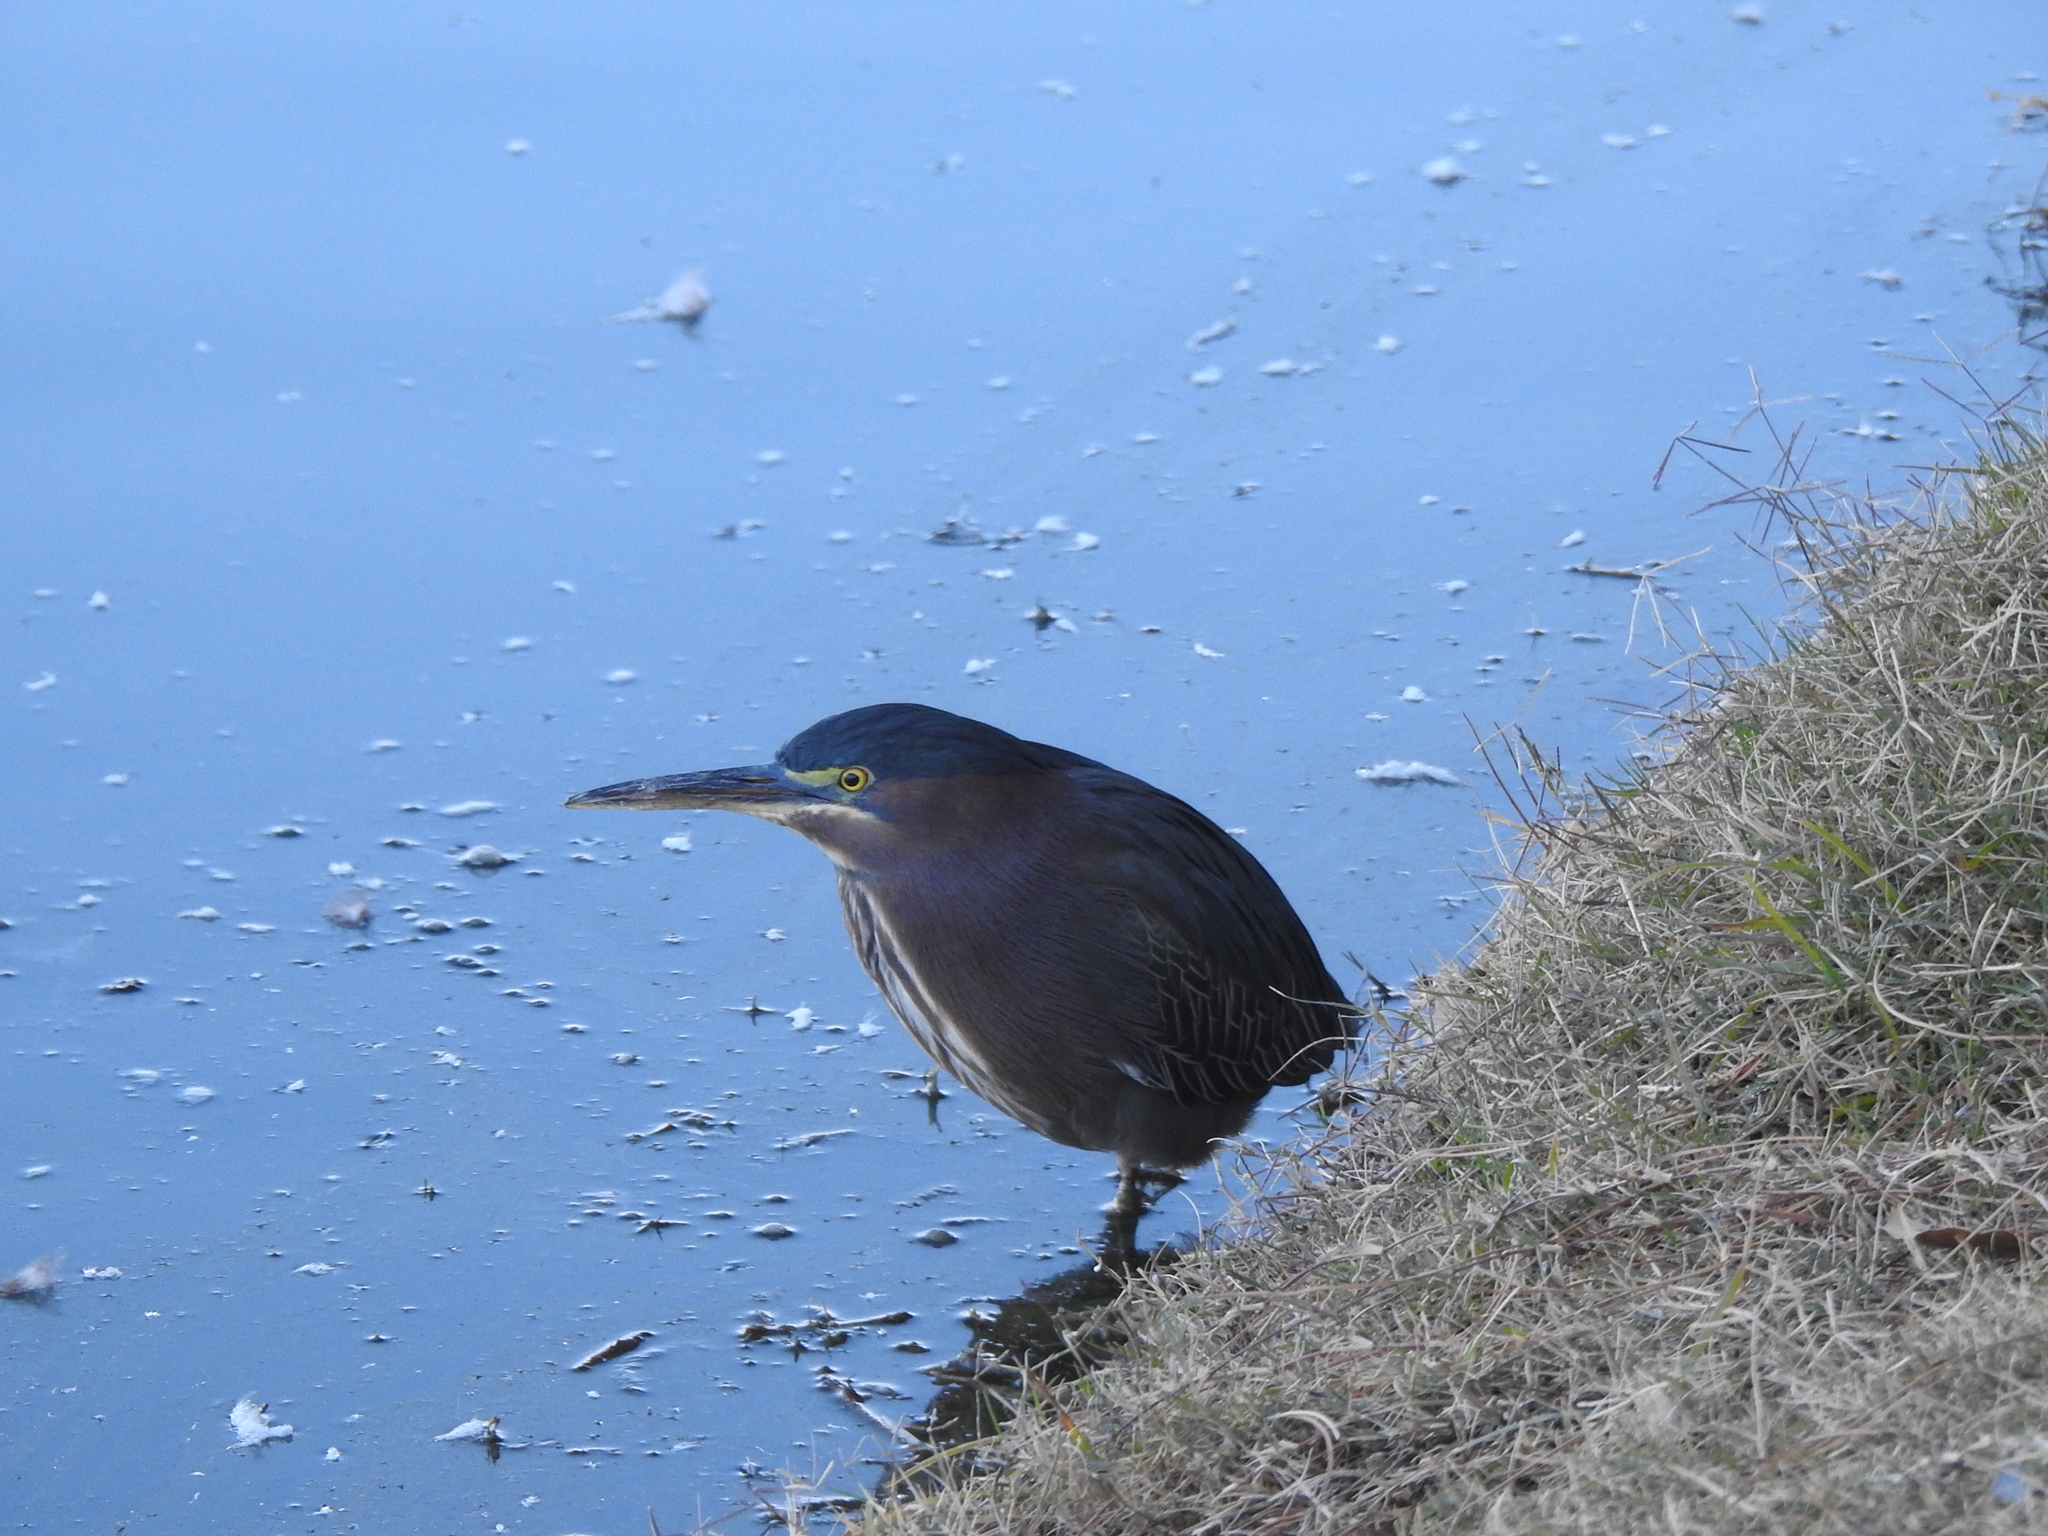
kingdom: Animalia
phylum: Chordata
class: Aves
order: Pelecaniformes
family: Ardeidae
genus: Butorides
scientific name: Butorides virescens
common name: Green heron
